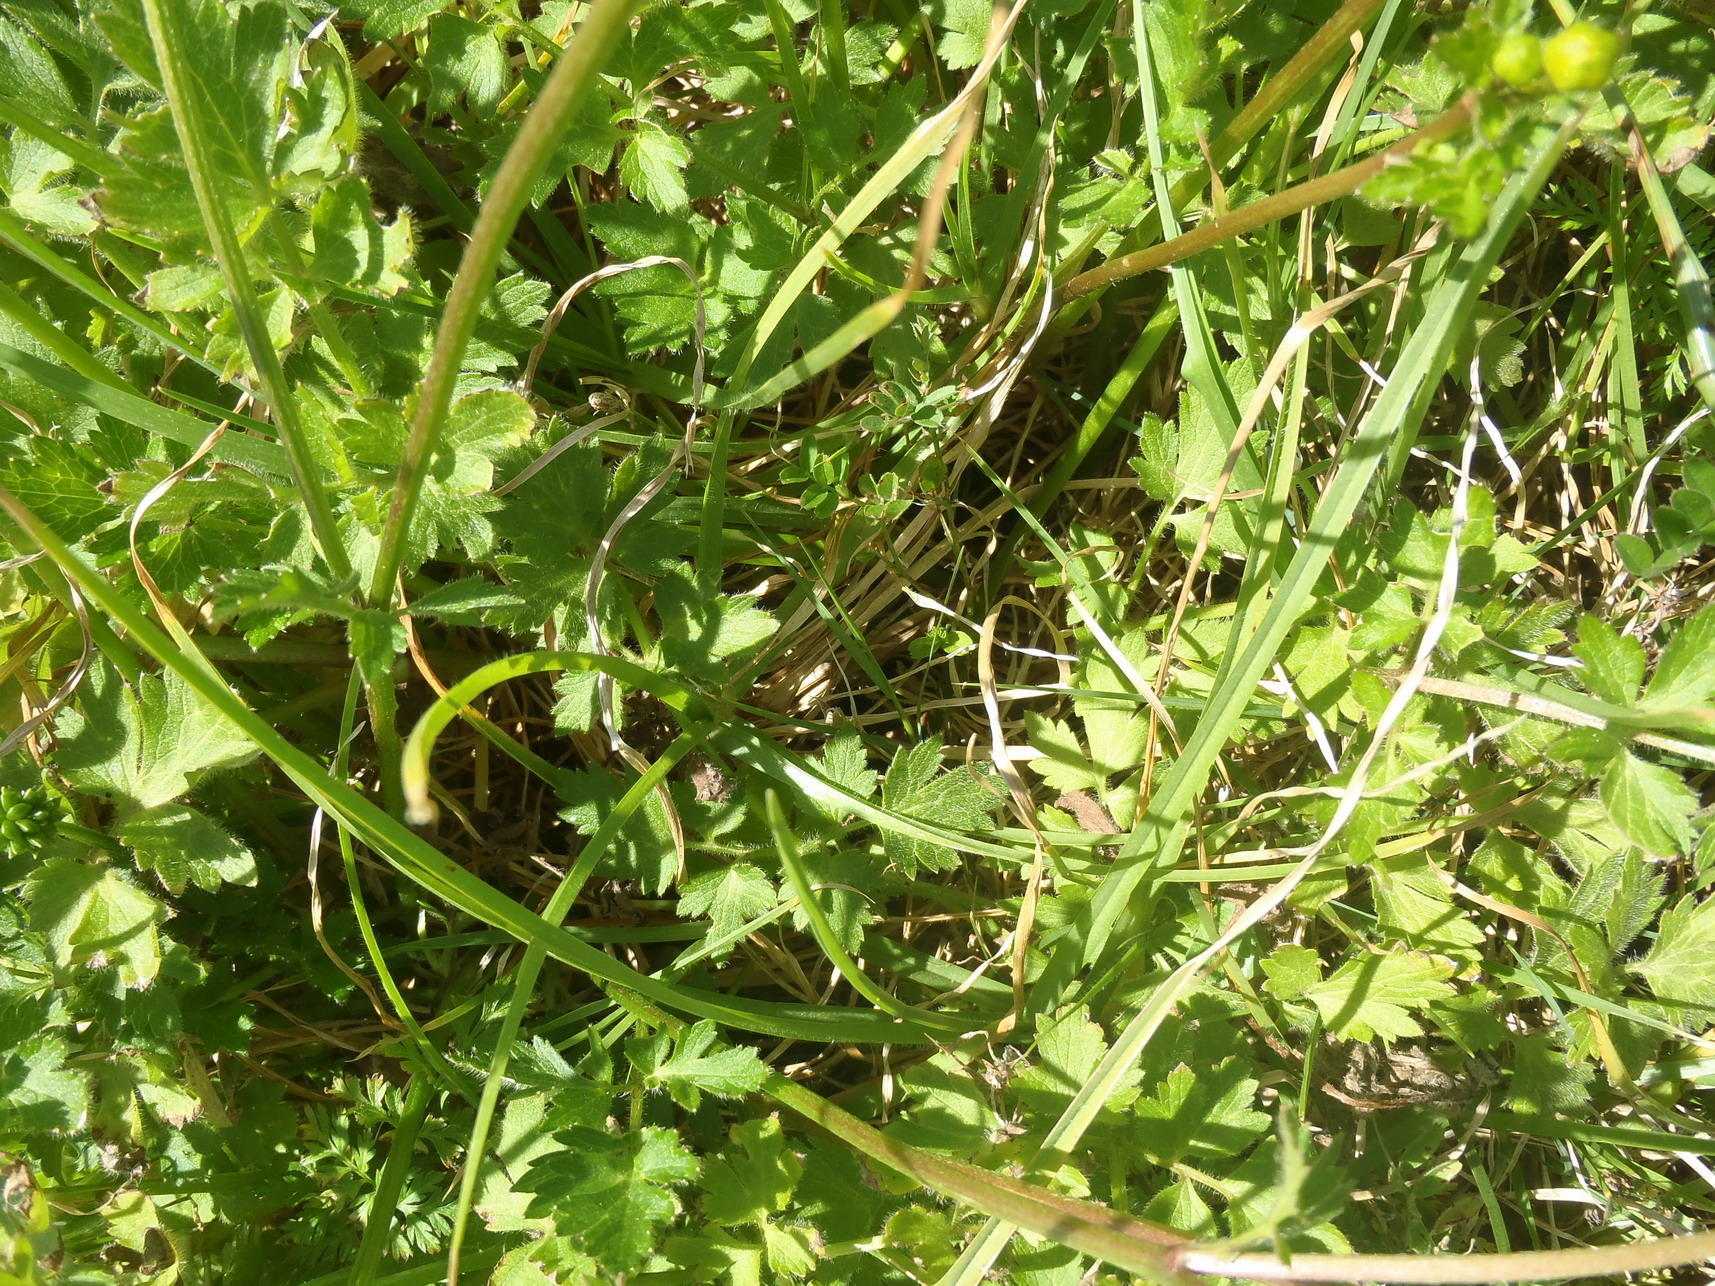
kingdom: Plantae
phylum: Tracheophyta
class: Magnoliopsida
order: Ranunculales
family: Ranunculaceae
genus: Ranunculus
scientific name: Ranunculus multifidus
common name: Wild buttercup
